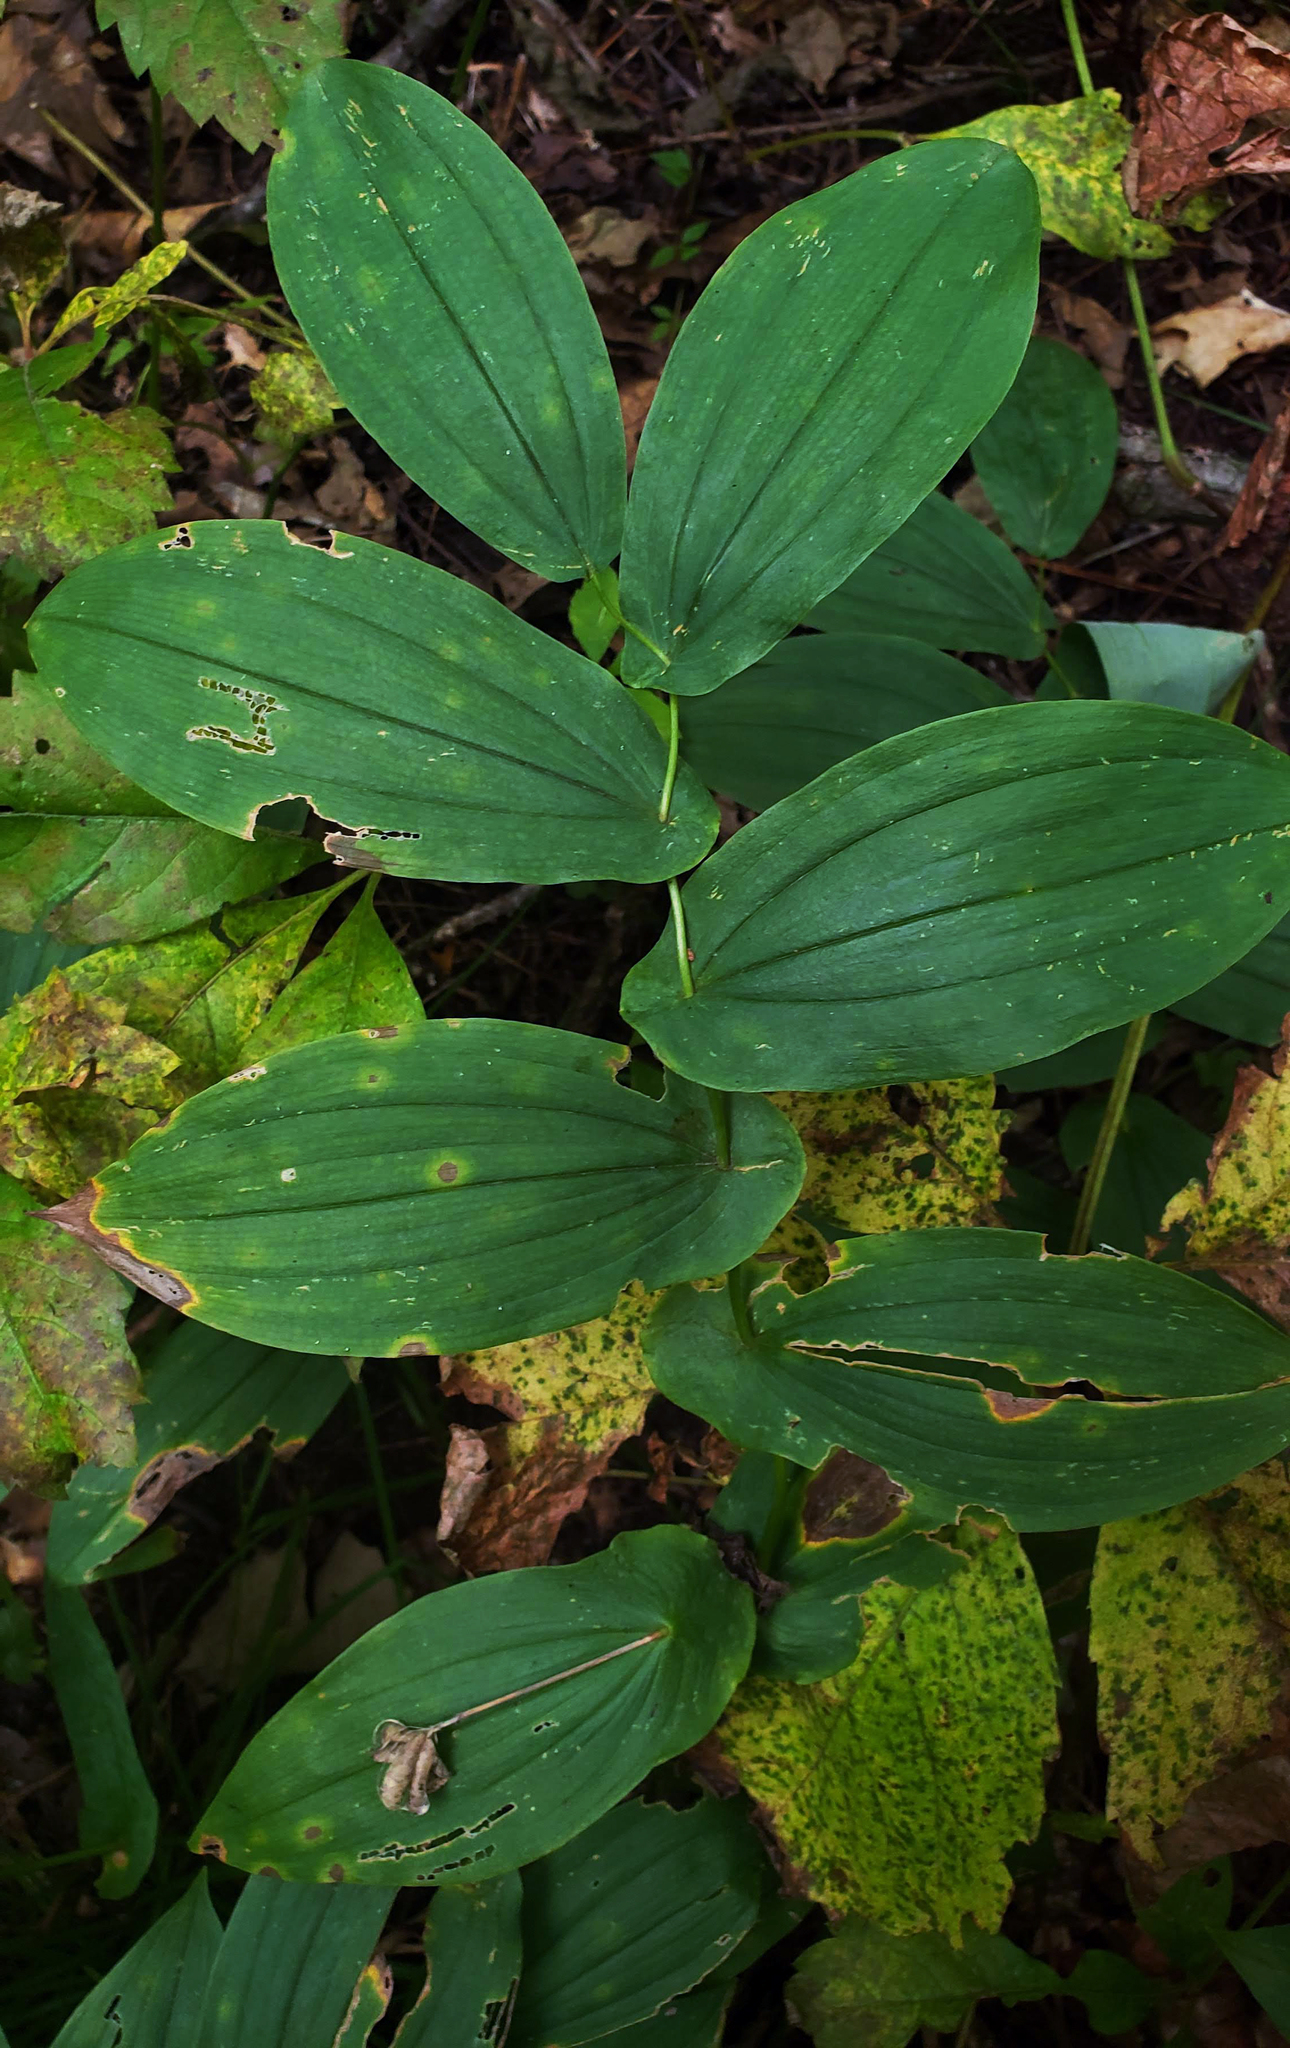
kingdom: Plantae
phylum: Tracheophyta
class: Liliopsida
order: Liliales
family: Colchicaceae
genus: Uvularia
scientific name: Uvularia grandiflora
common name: Bellwort
